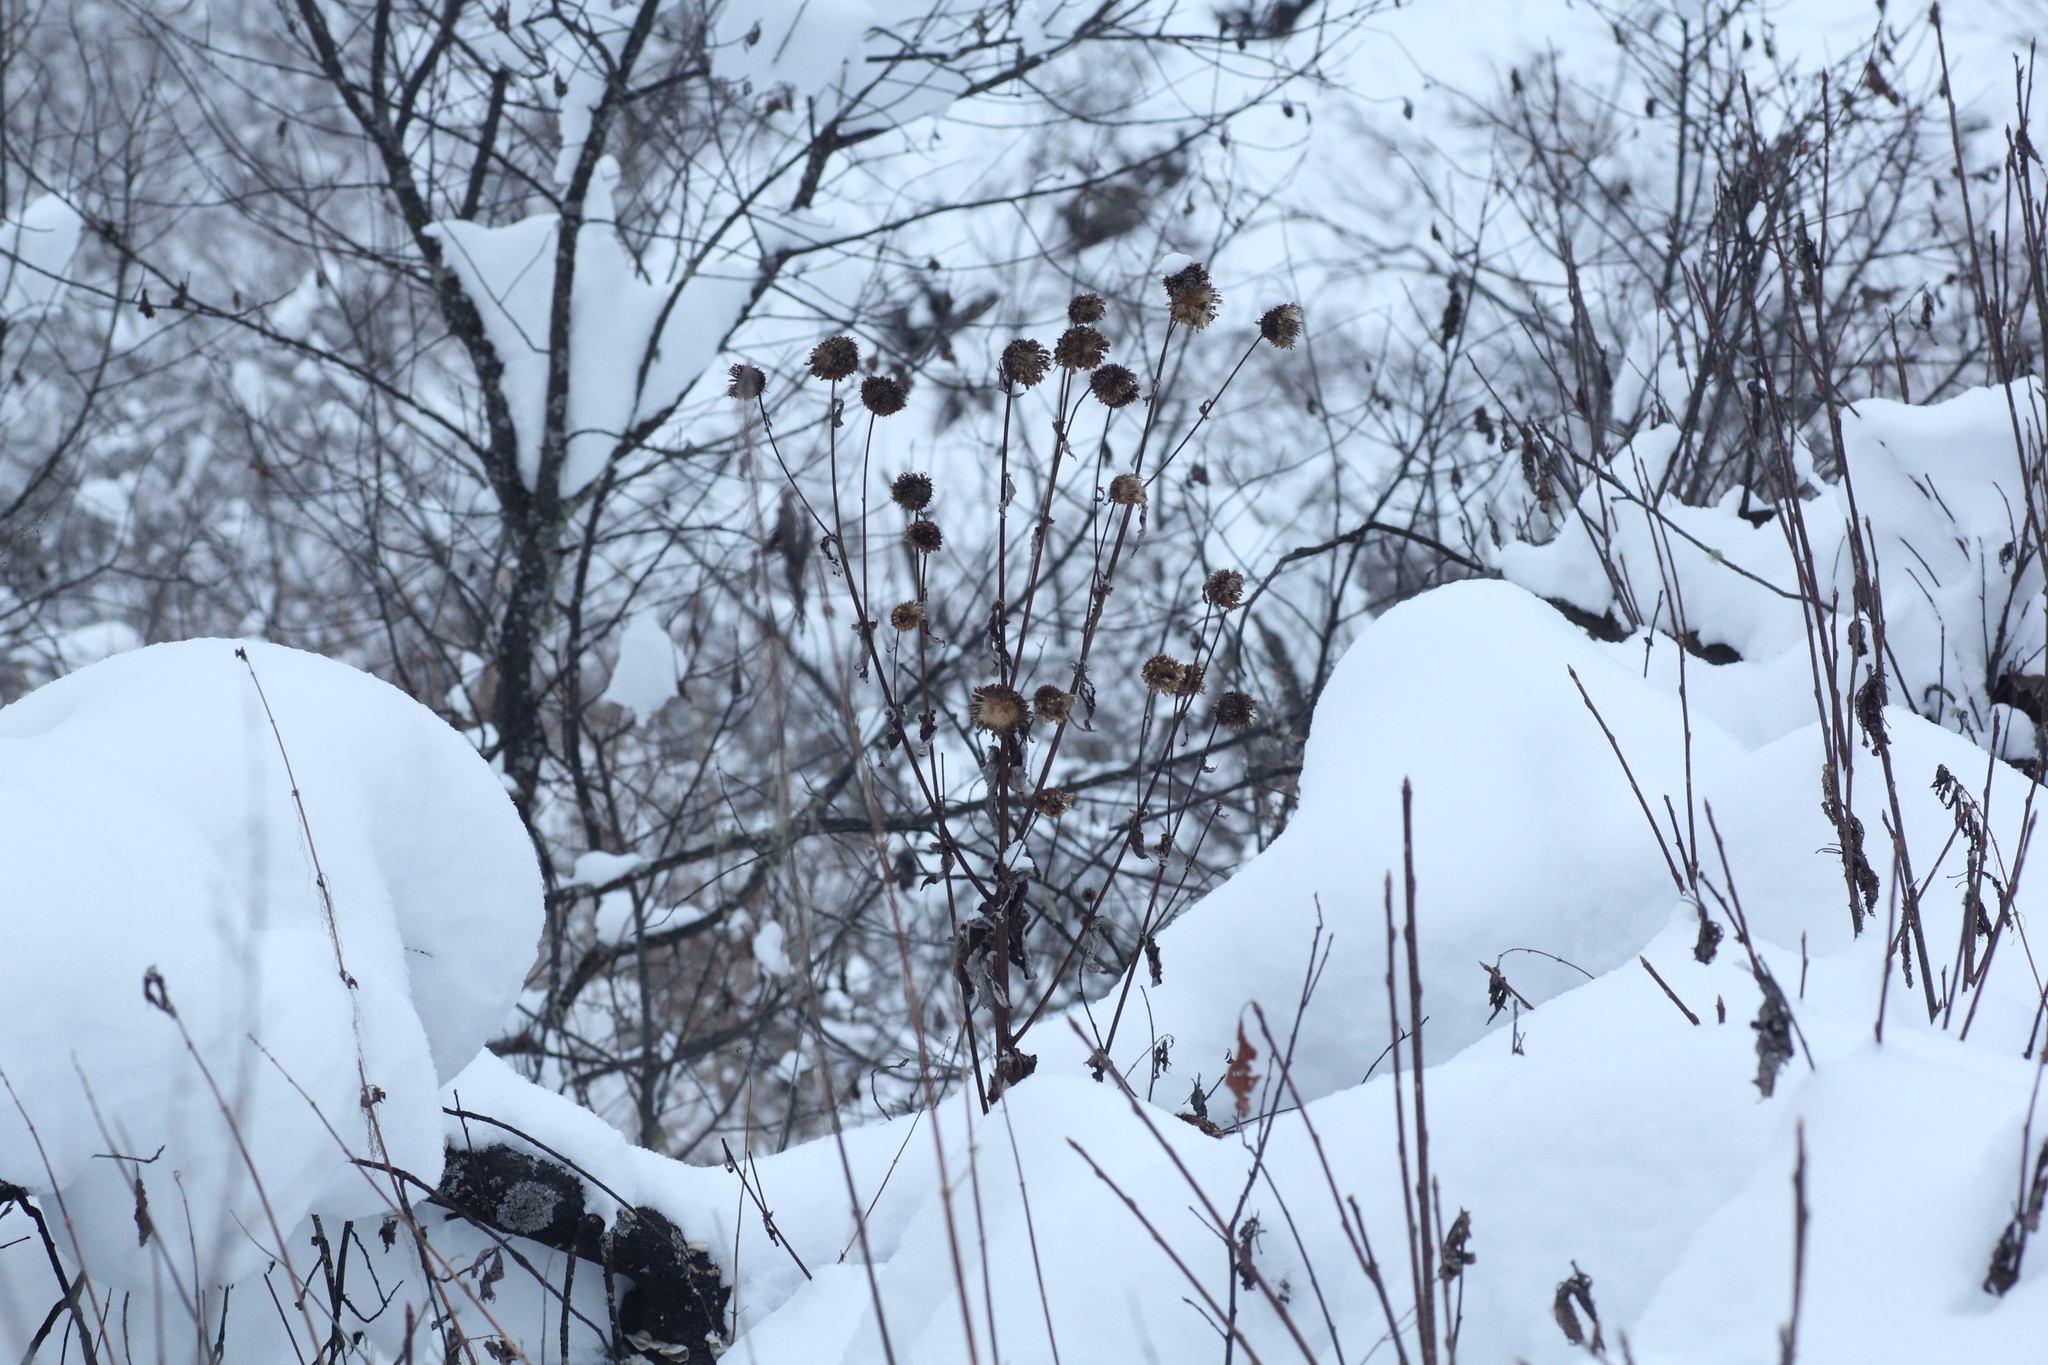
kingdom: Plantae
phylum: Tracheophyta
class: Magnoliopsida
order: Asterales
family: Asteraceae
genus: Alfredia
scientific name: Alfredia cernua
